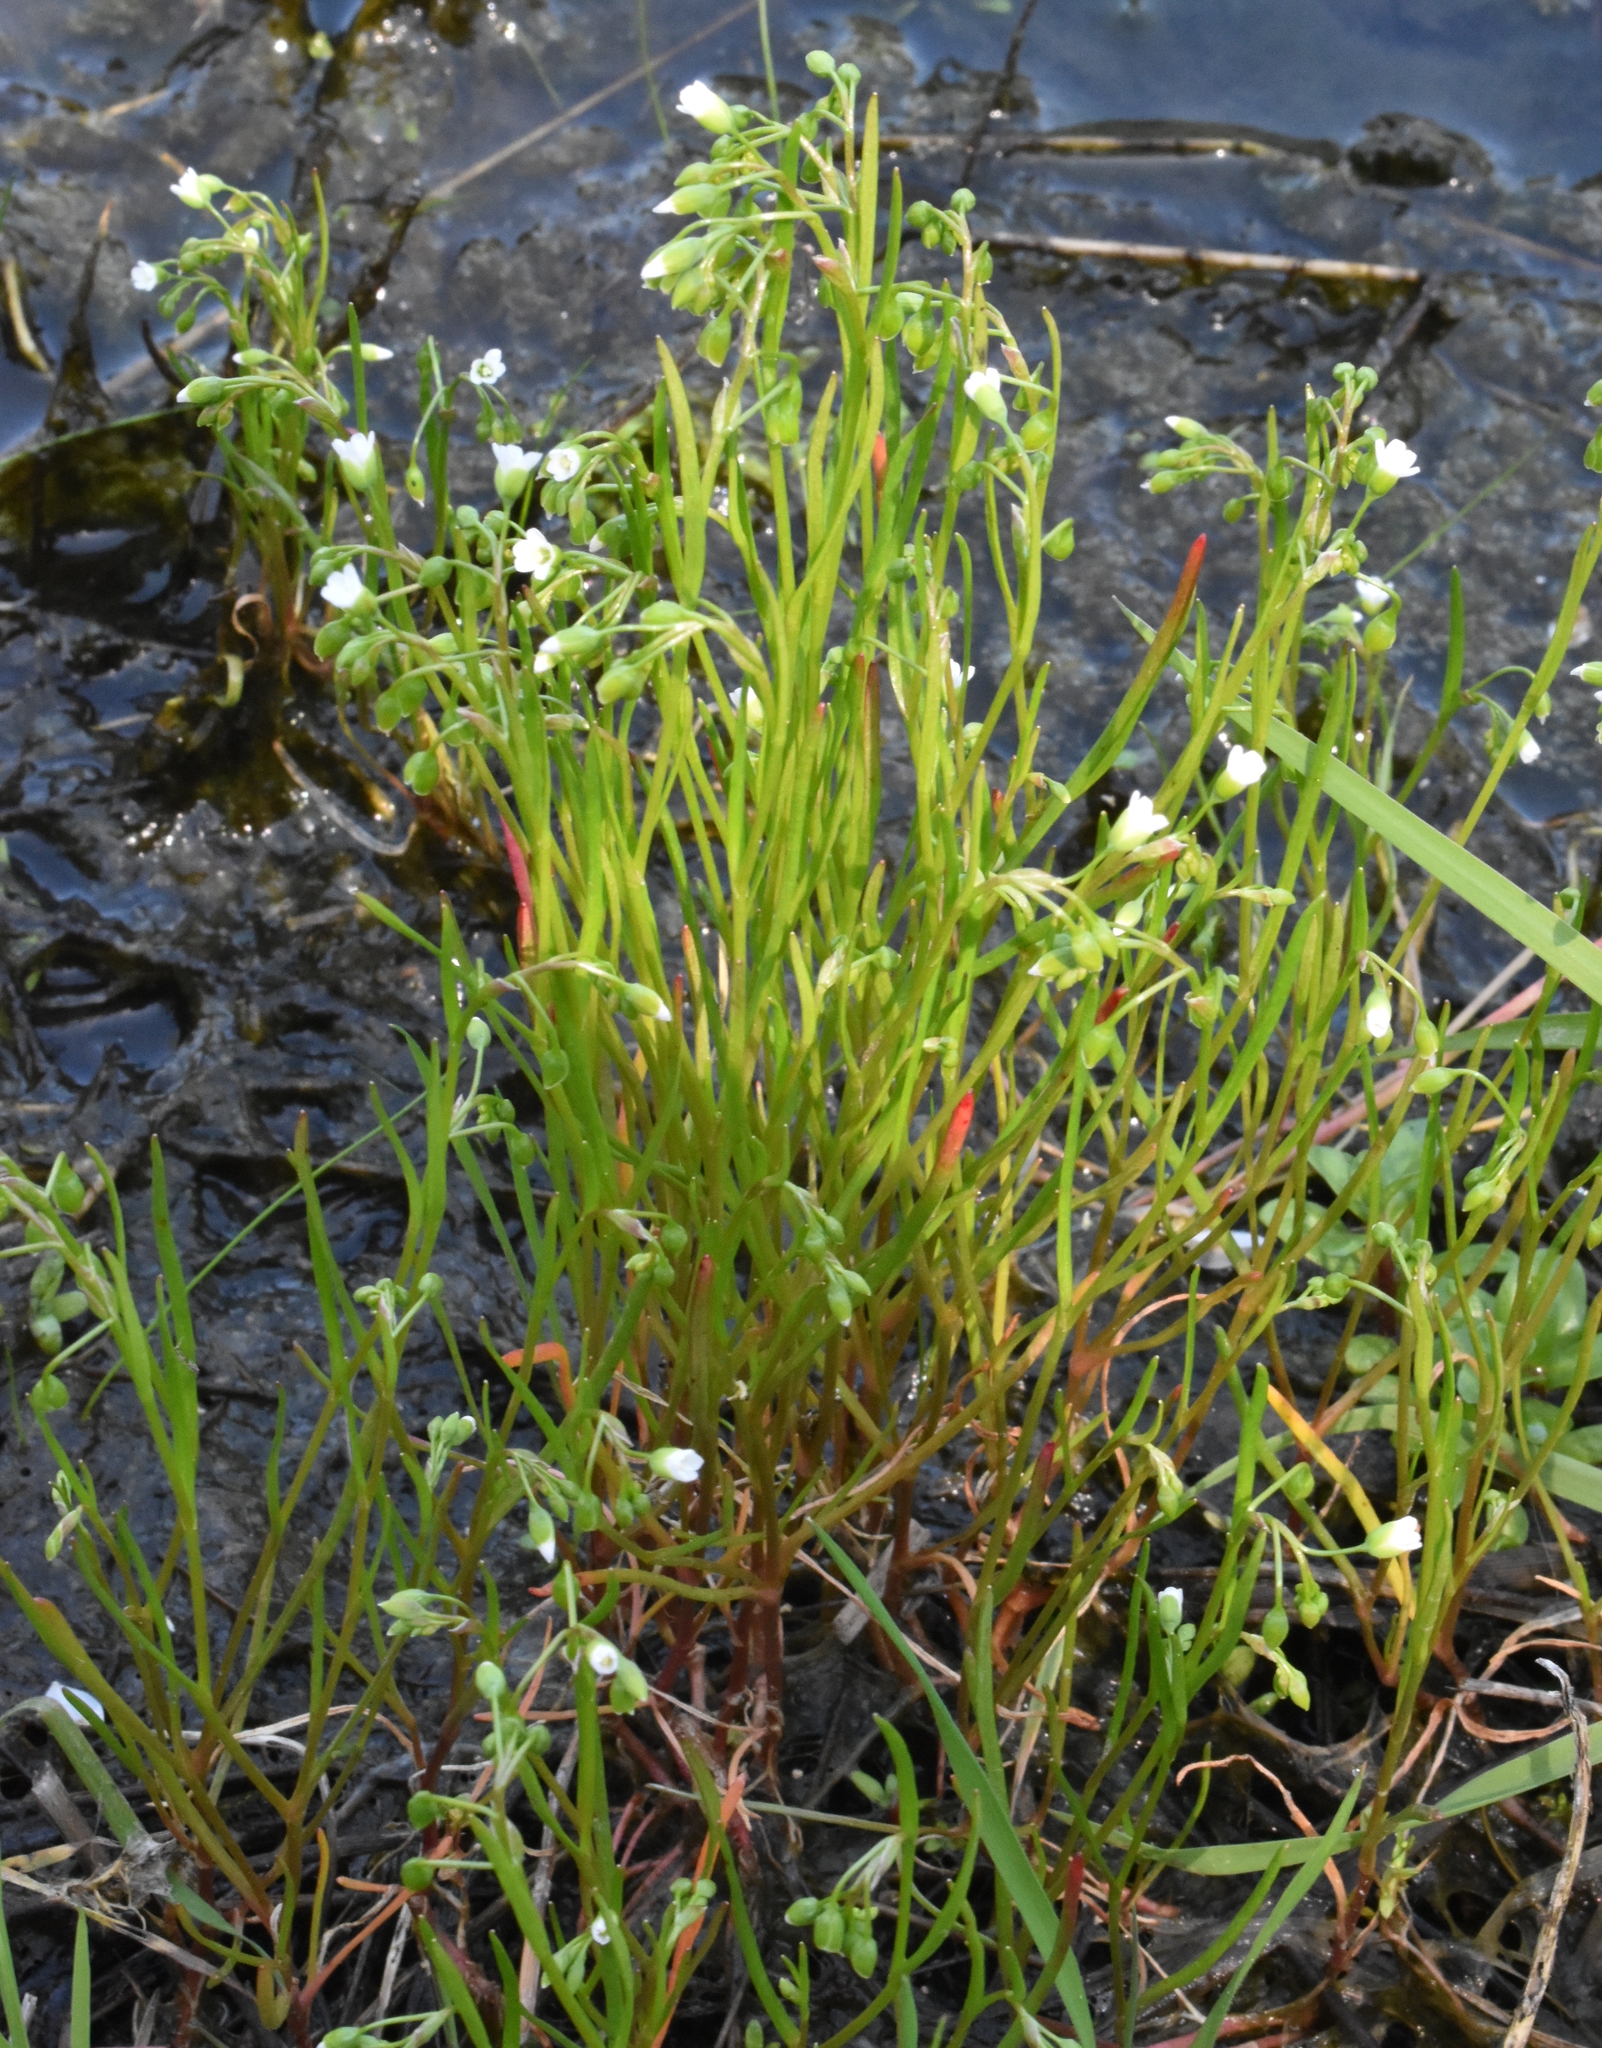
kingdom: Plantae
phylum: Tracheophyta
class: Magnoliopsida
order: Caryophyllales
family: Montiaceae
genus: Montia
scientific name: Montia linearis
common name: Narrow-leaf montia
